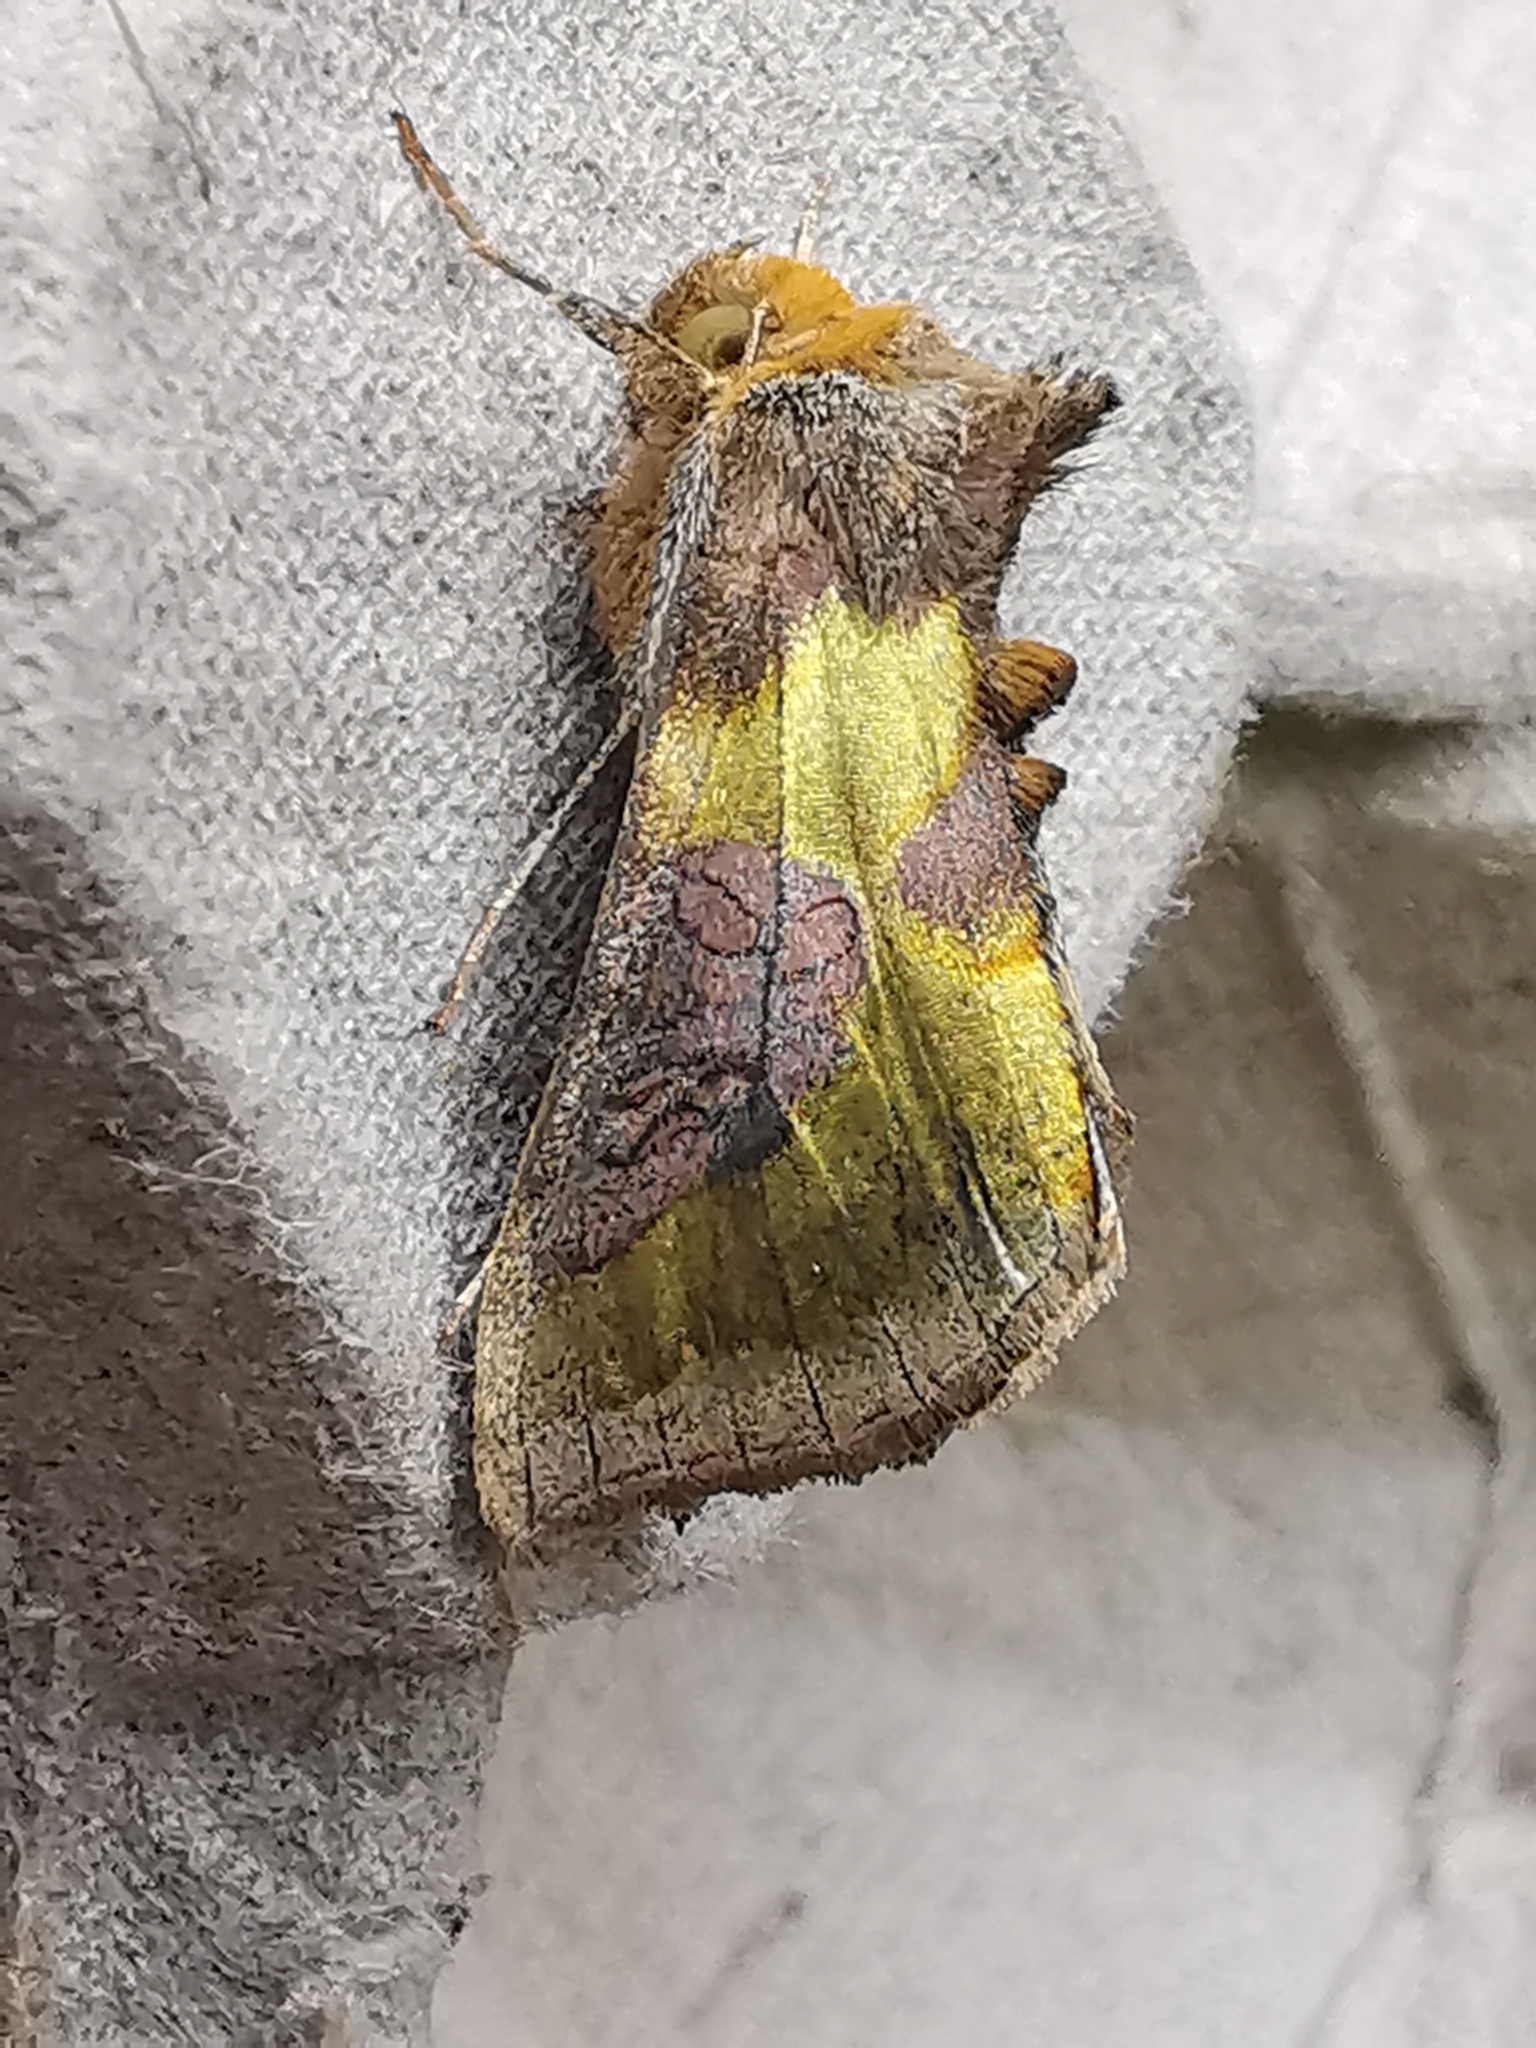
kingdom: Animalia
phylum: Arthropoda
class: Insecta
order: Lepidoptera
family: Noctuidae
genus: Diachrysia
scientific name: Diachrysia chrysitis
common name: Burnished brass
